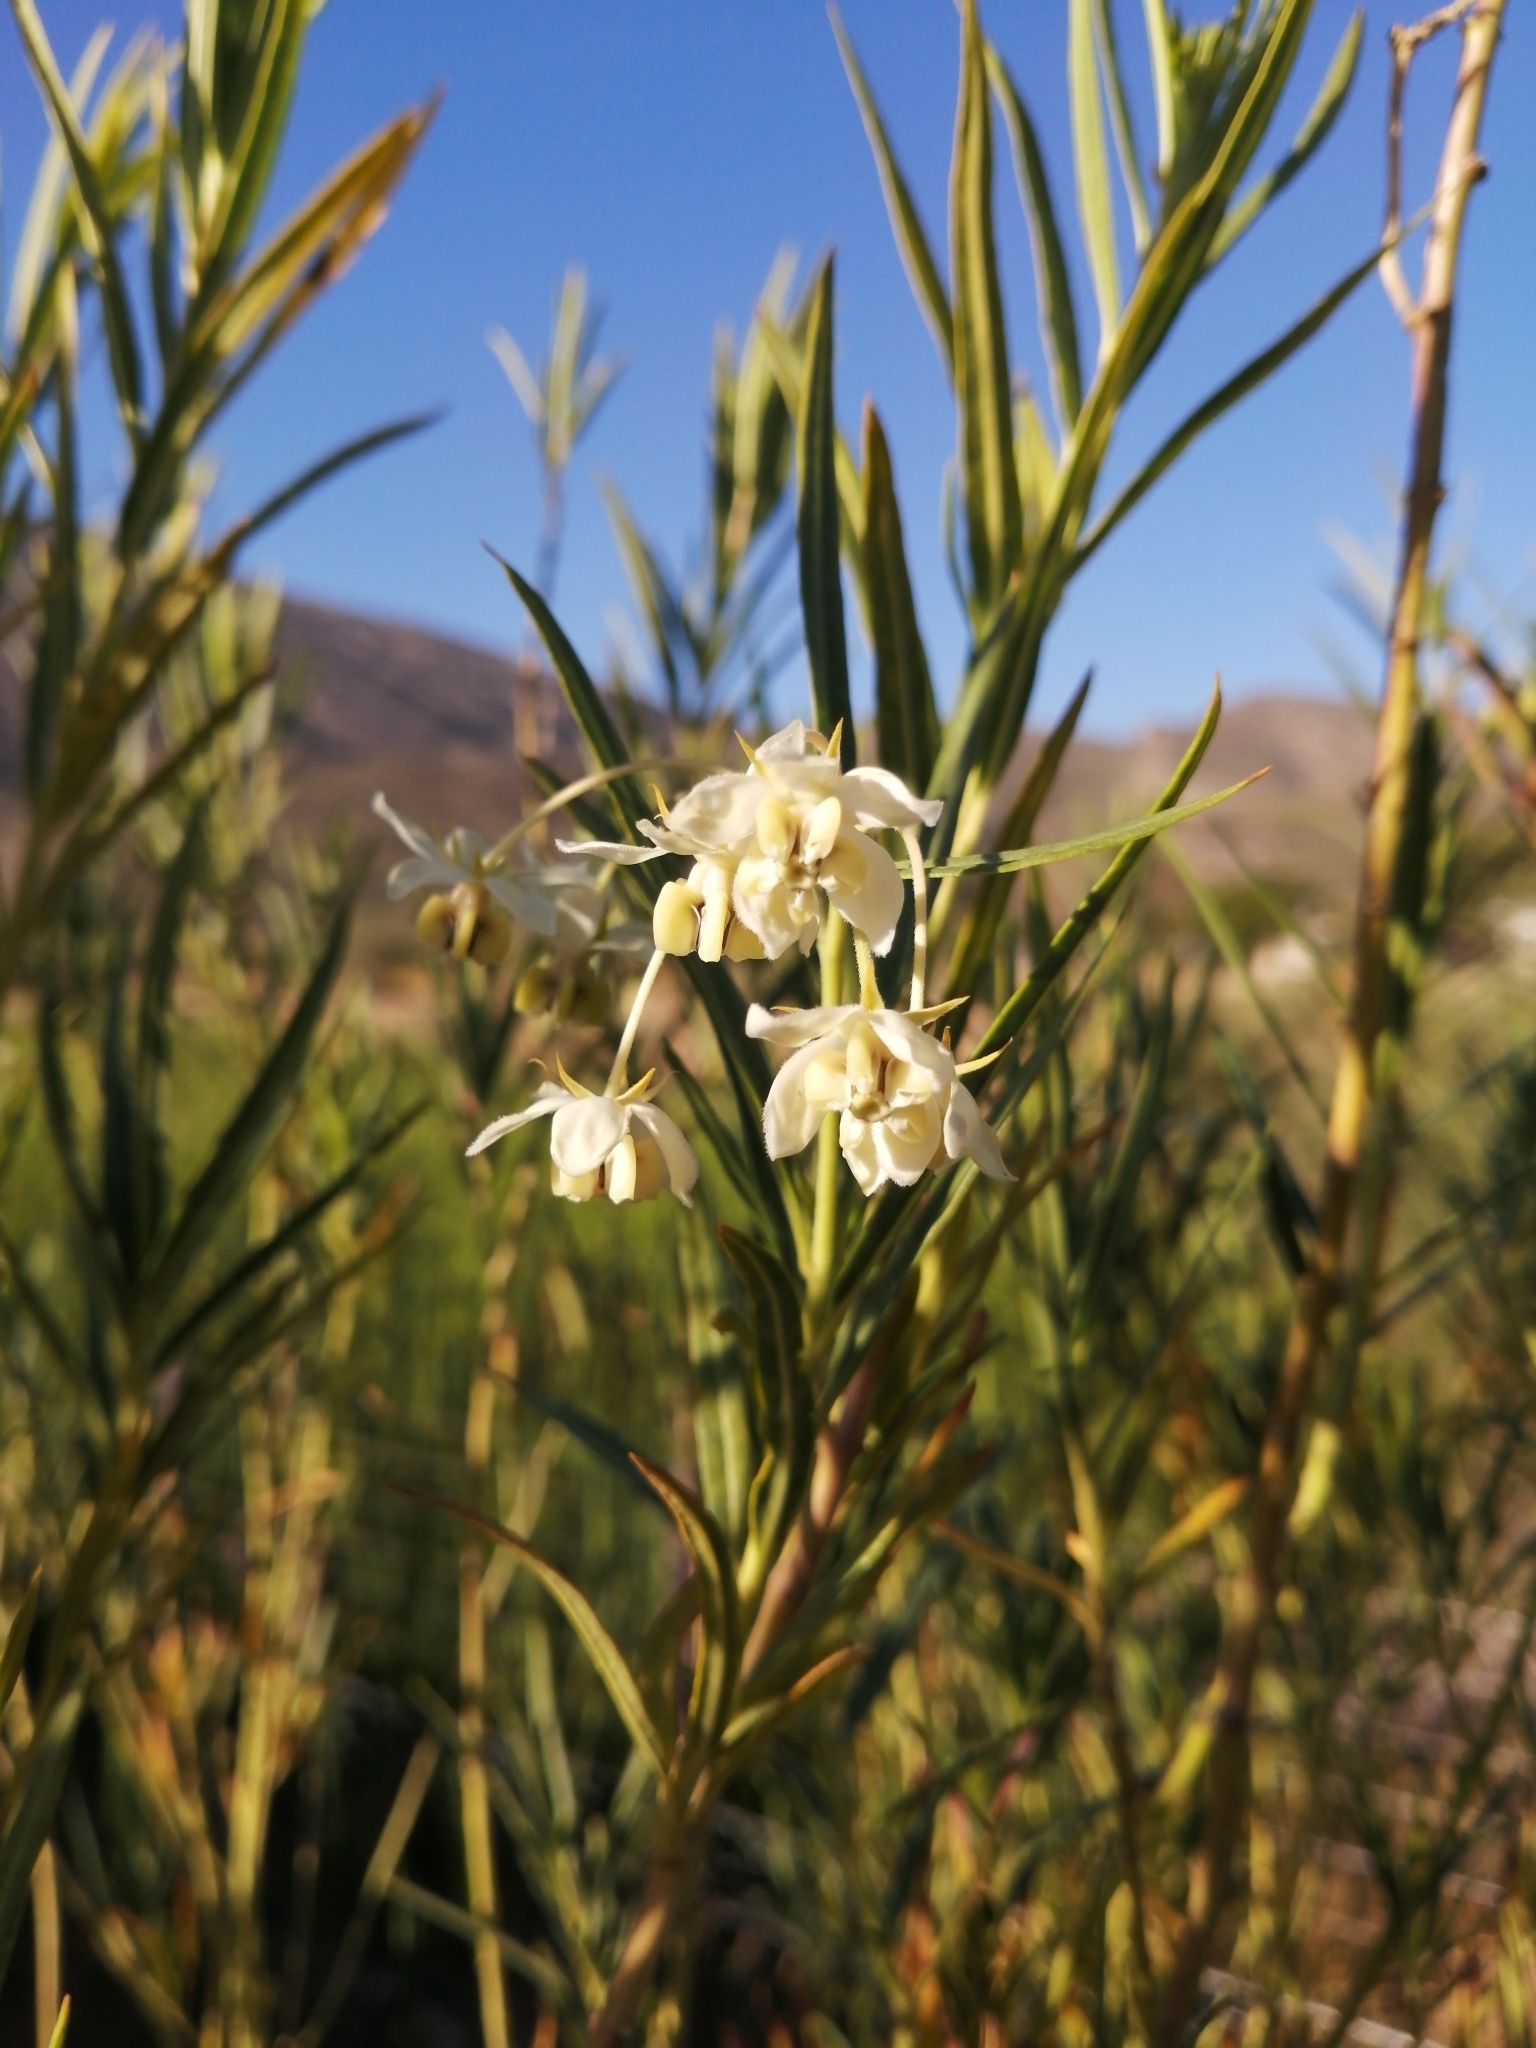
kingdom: Plantae
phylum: Tracheophyta
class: Magnoliopsida
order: Gentianales
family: Apocynaceae
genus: Gomphocarpus
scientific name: Gomphocarpus fruticosus
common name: Milkweed
